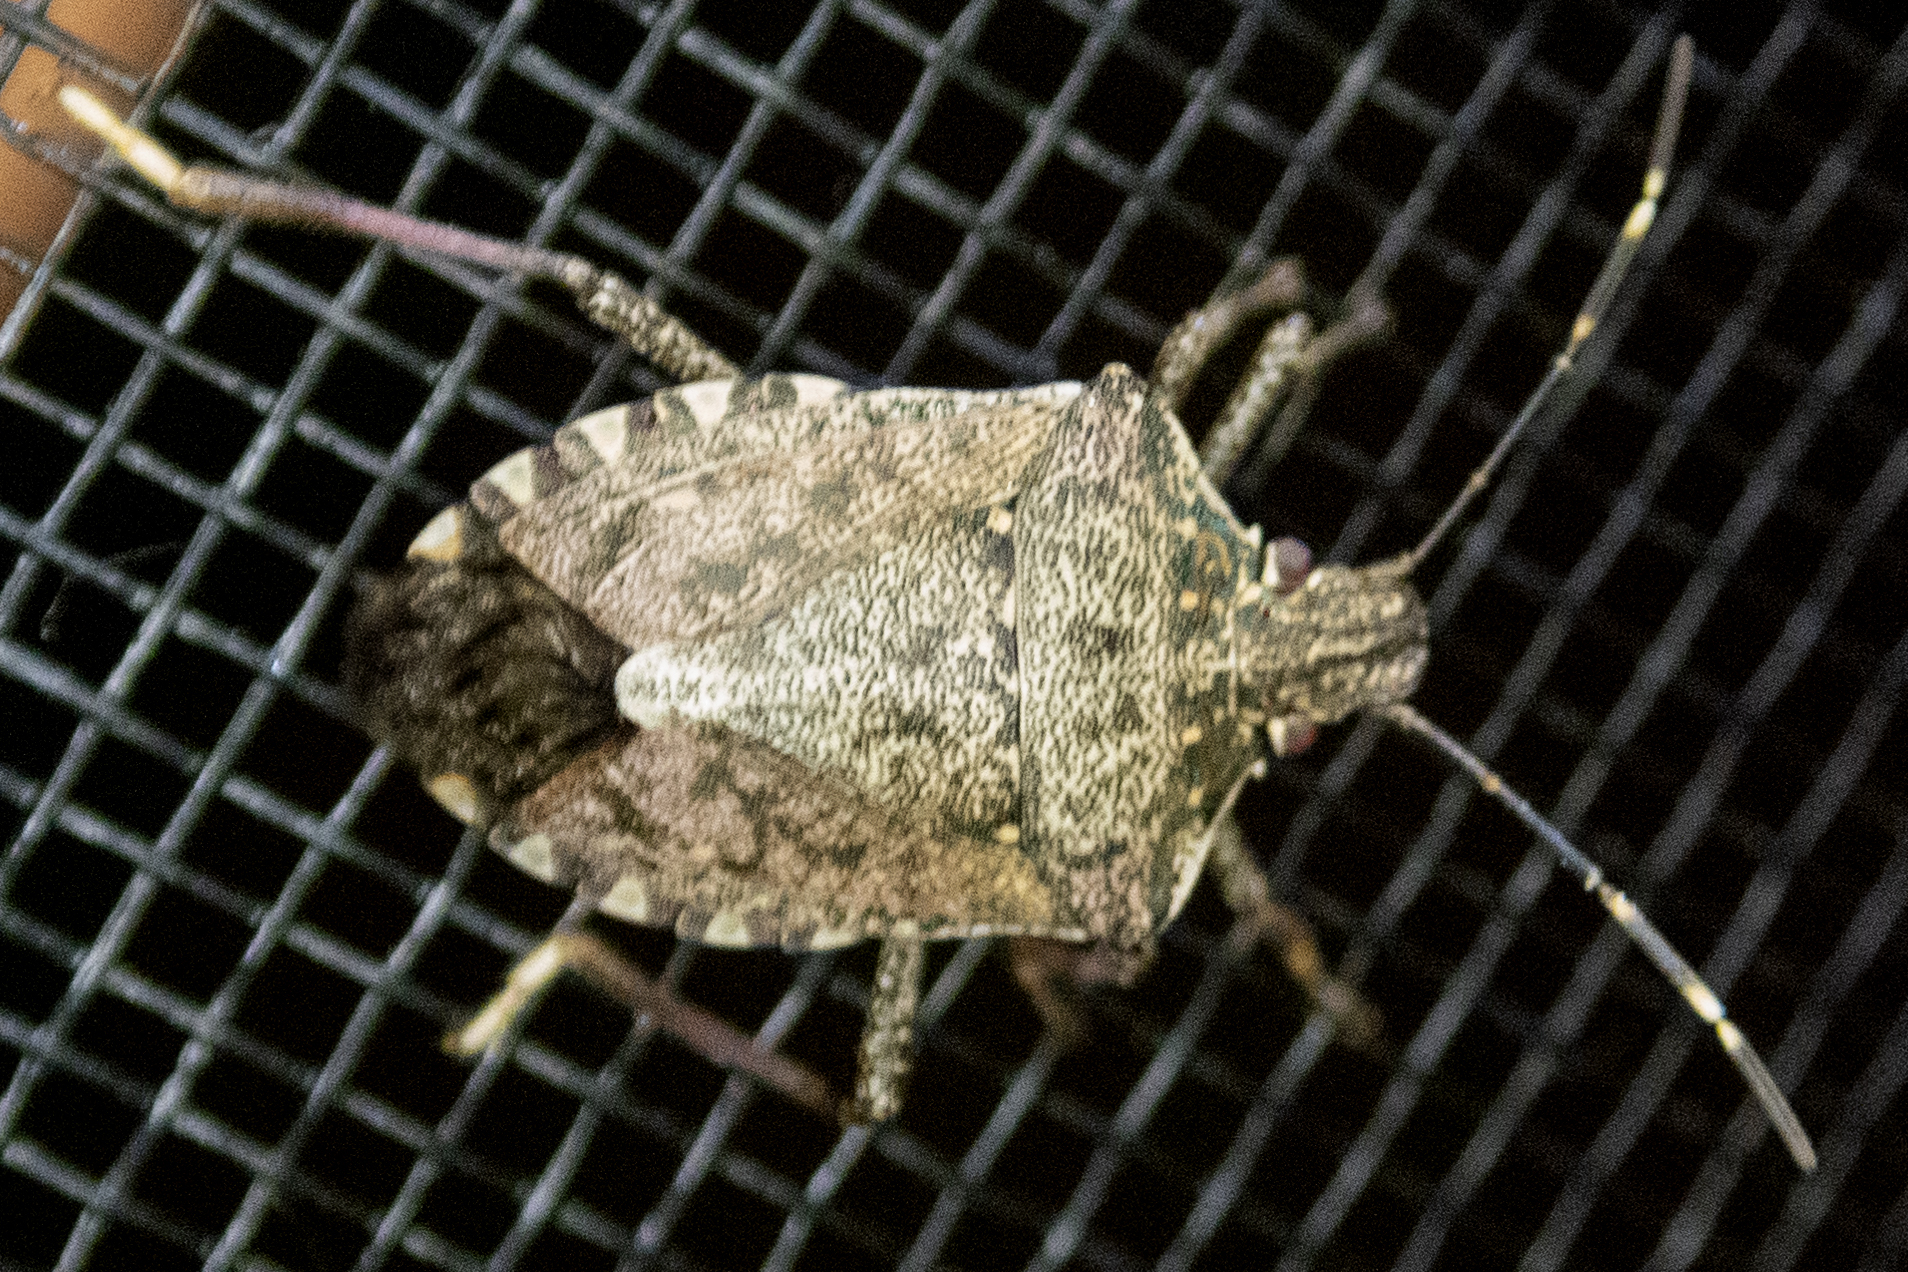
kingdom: Animalia
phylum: Arthropoda
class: Insecta
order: Hemiptera
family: Pentatomidae
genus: Halyomorpha
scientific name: Halyomorpha halys
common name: Brown marmorated stink bug
